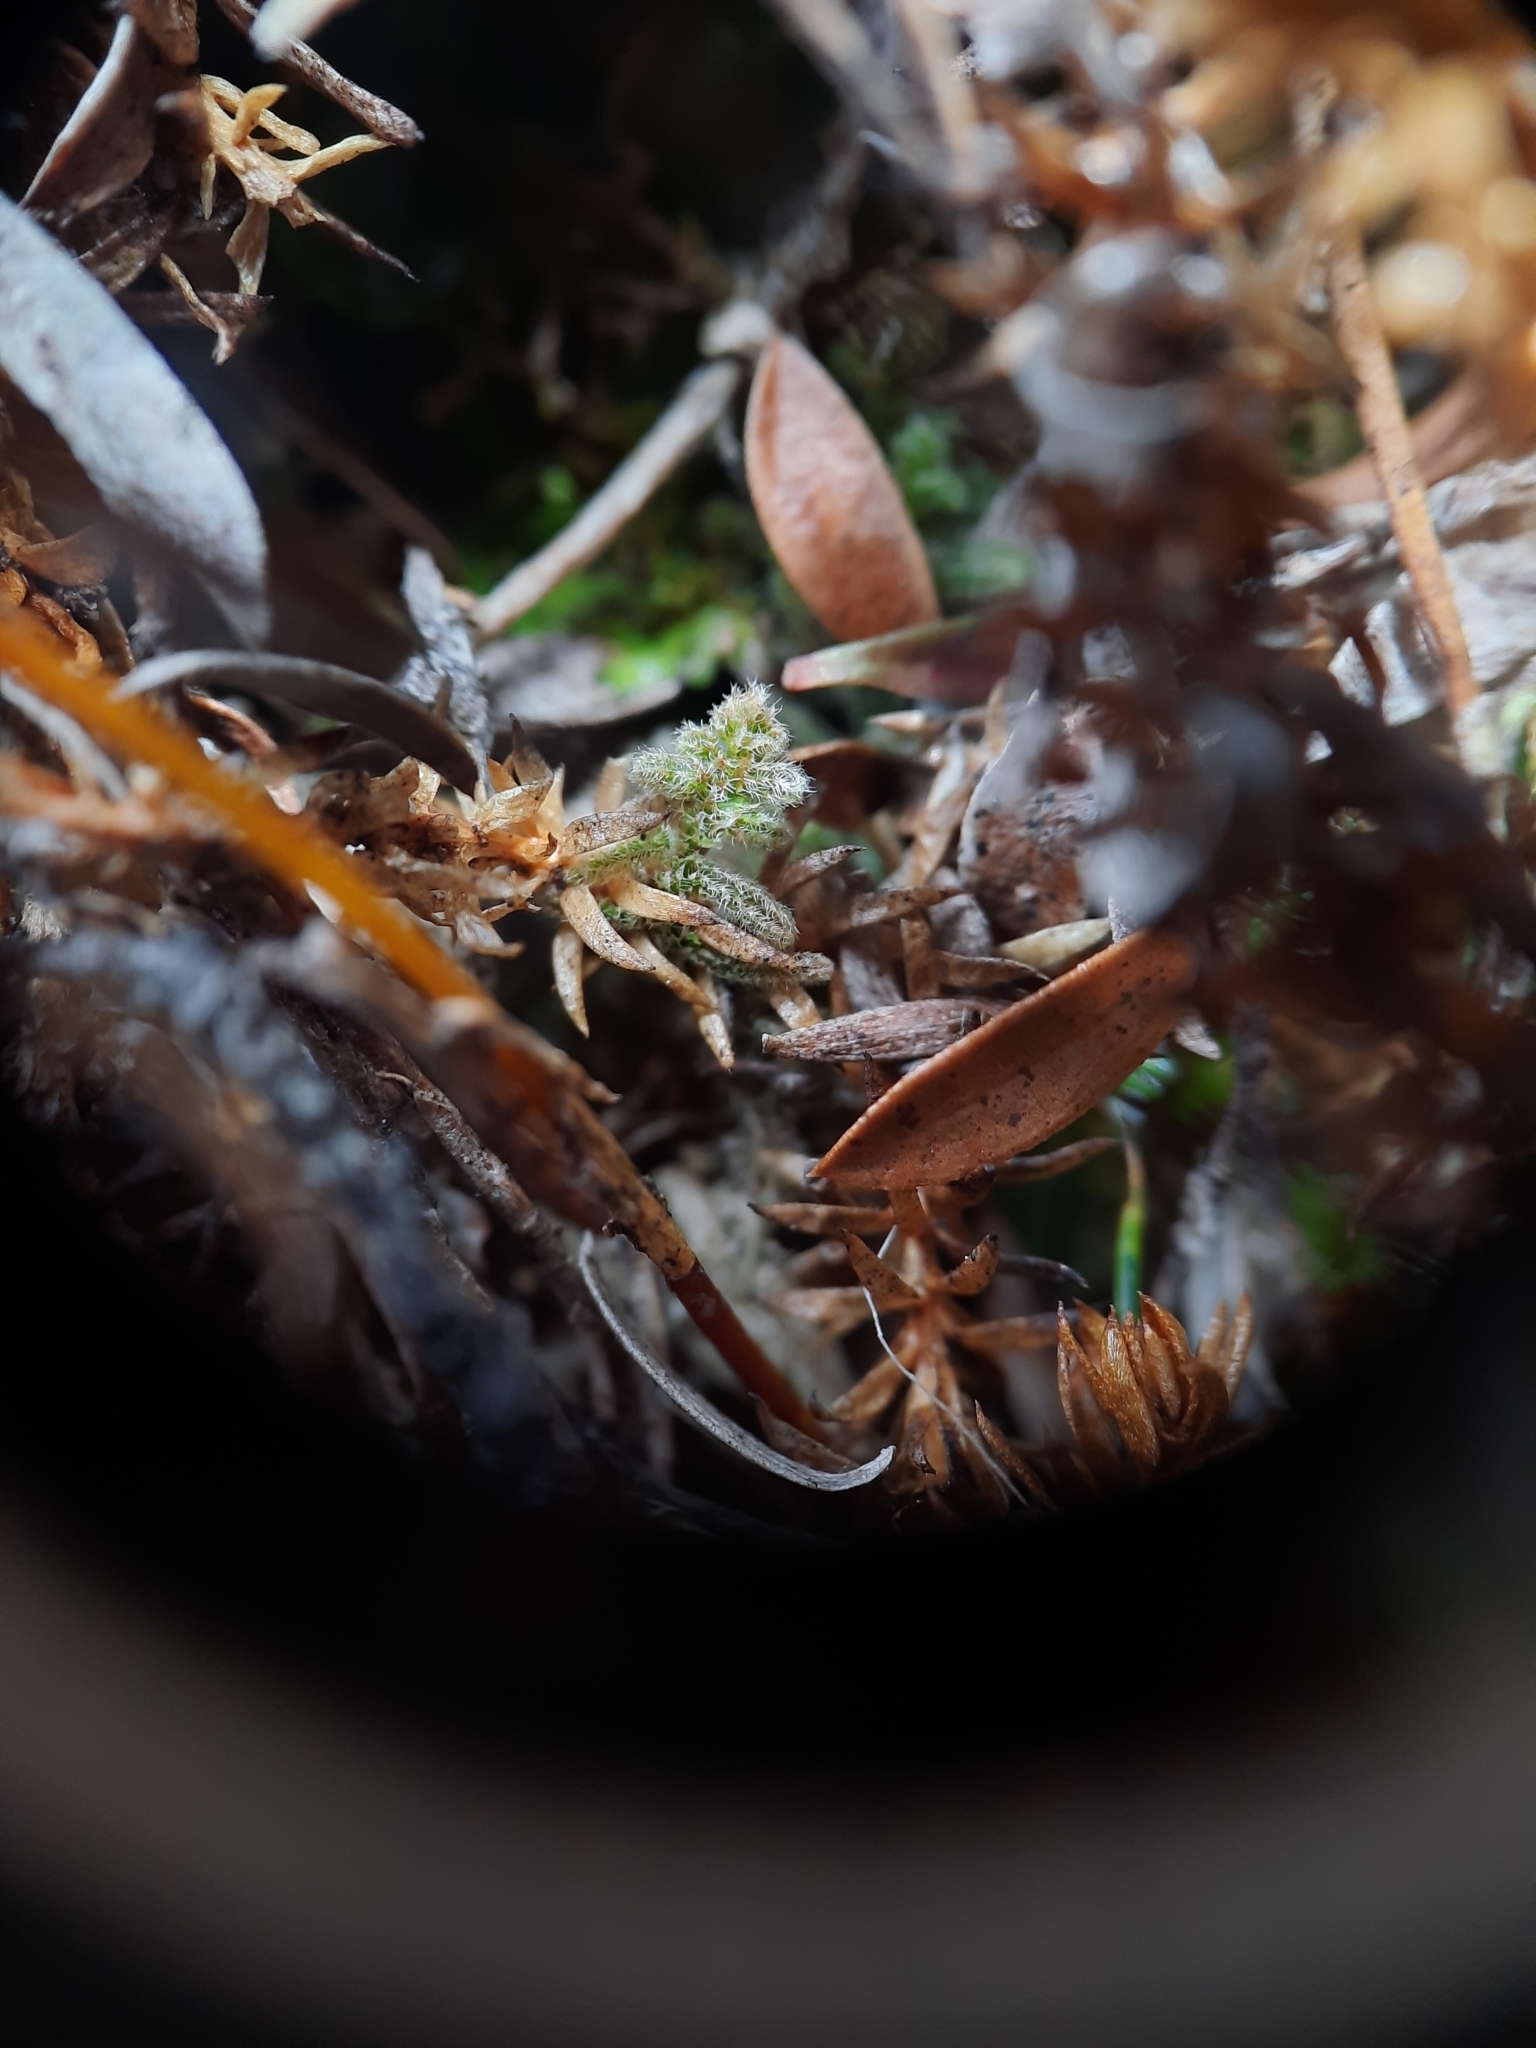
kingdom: Plantae
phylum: Marchantiophyta
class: Jungermanniopsida
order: Ptilidiales
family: Herzogianthaceae
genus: Herzogianthus
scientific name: Herzogianthus vaginatus
